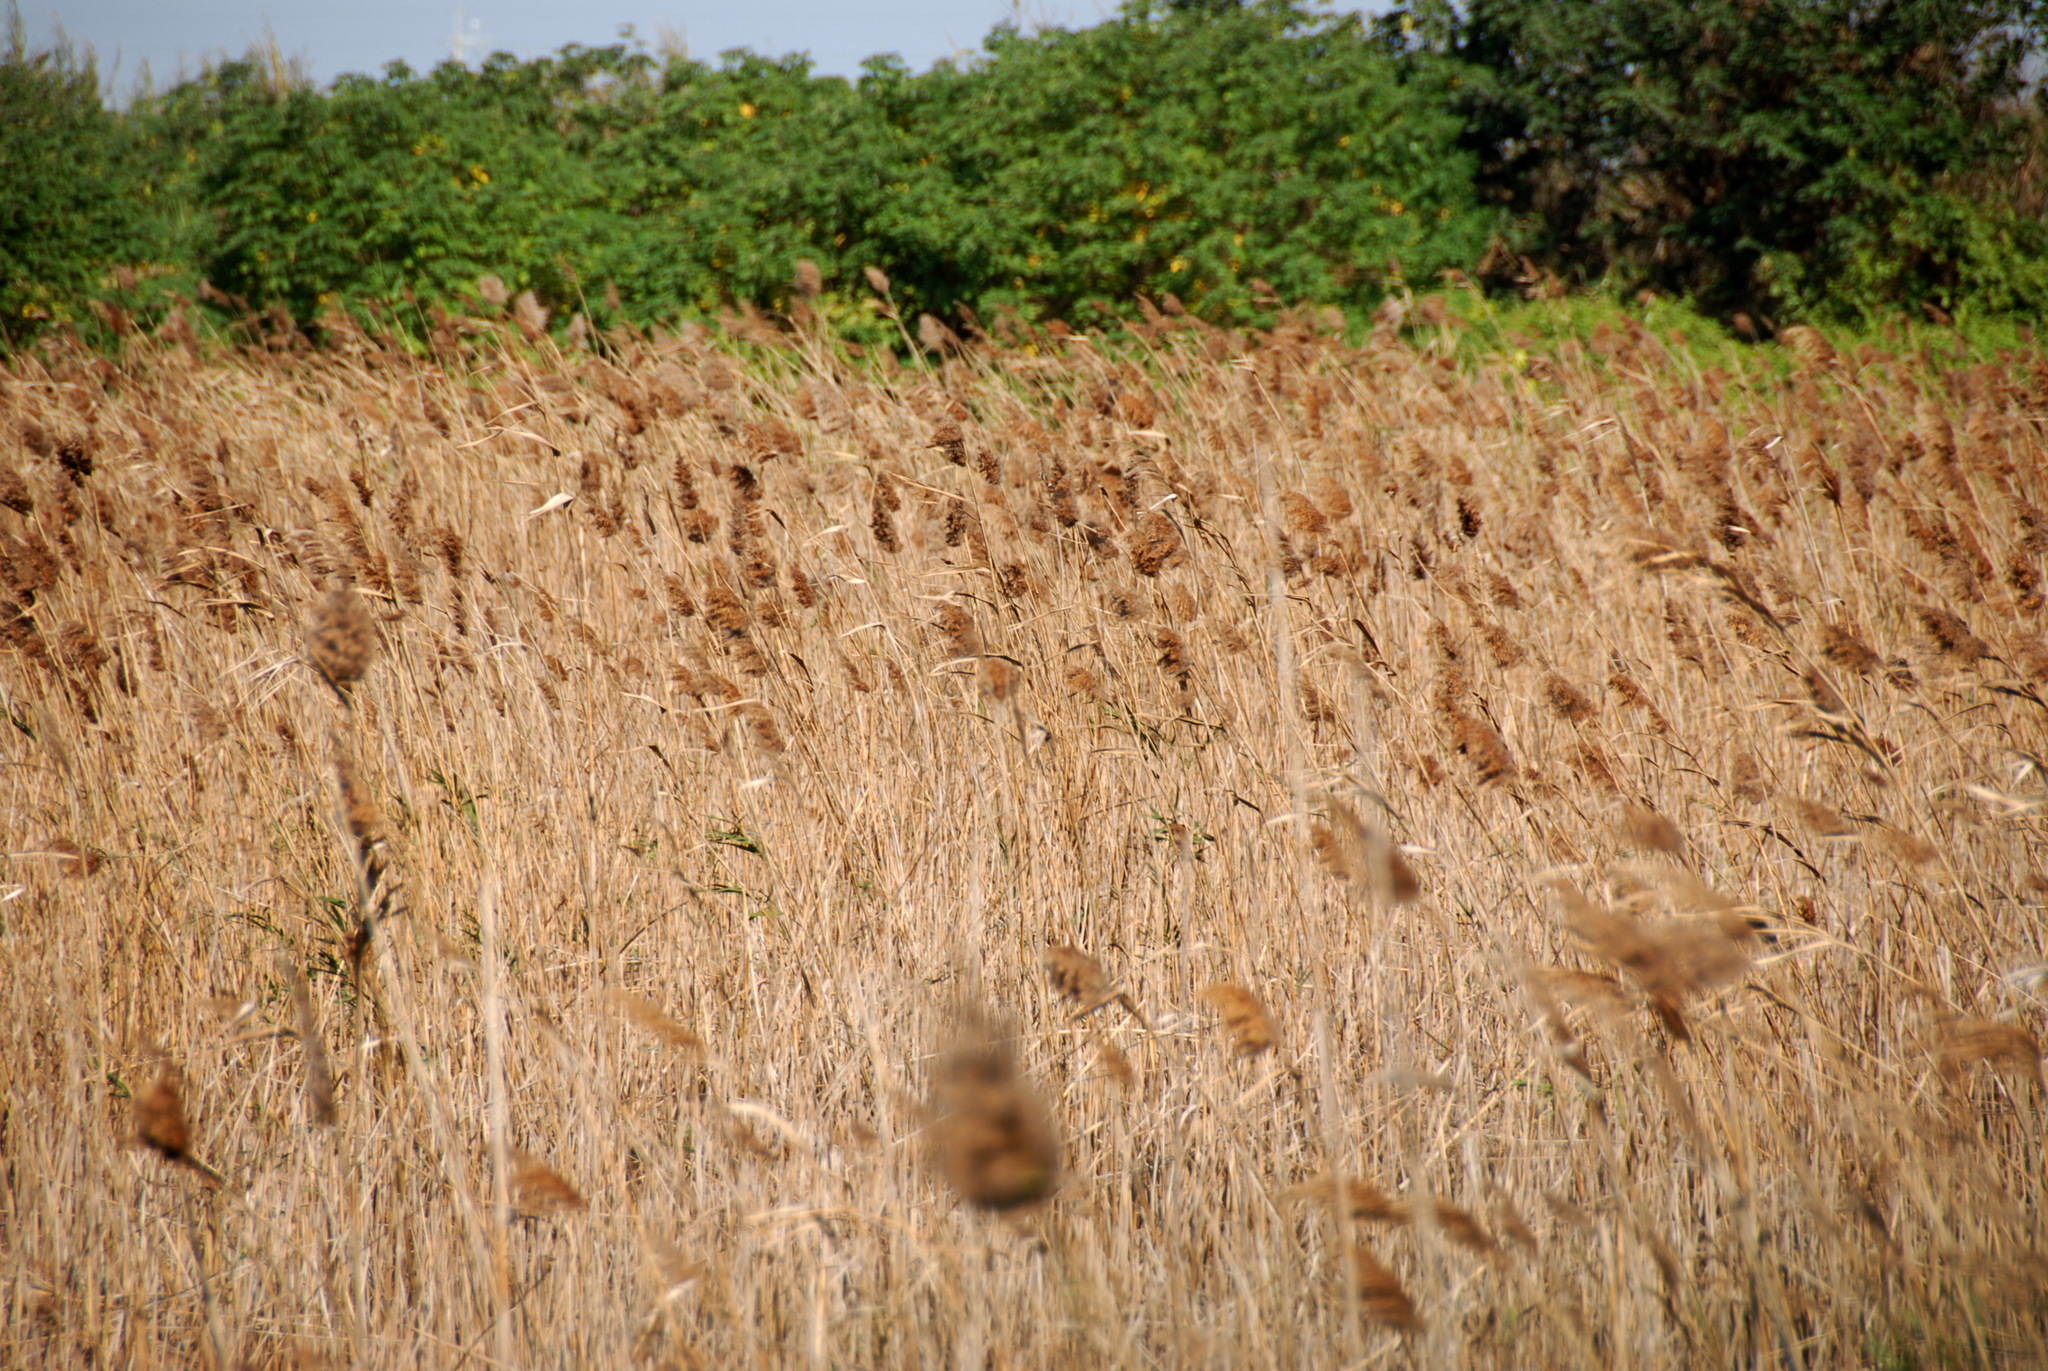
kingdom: Plantae
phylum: Tracheophyta
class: Liliopsida
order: Poales
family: Poaceae
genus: Phragmites
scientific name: Phragmites australis
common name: Common reed
